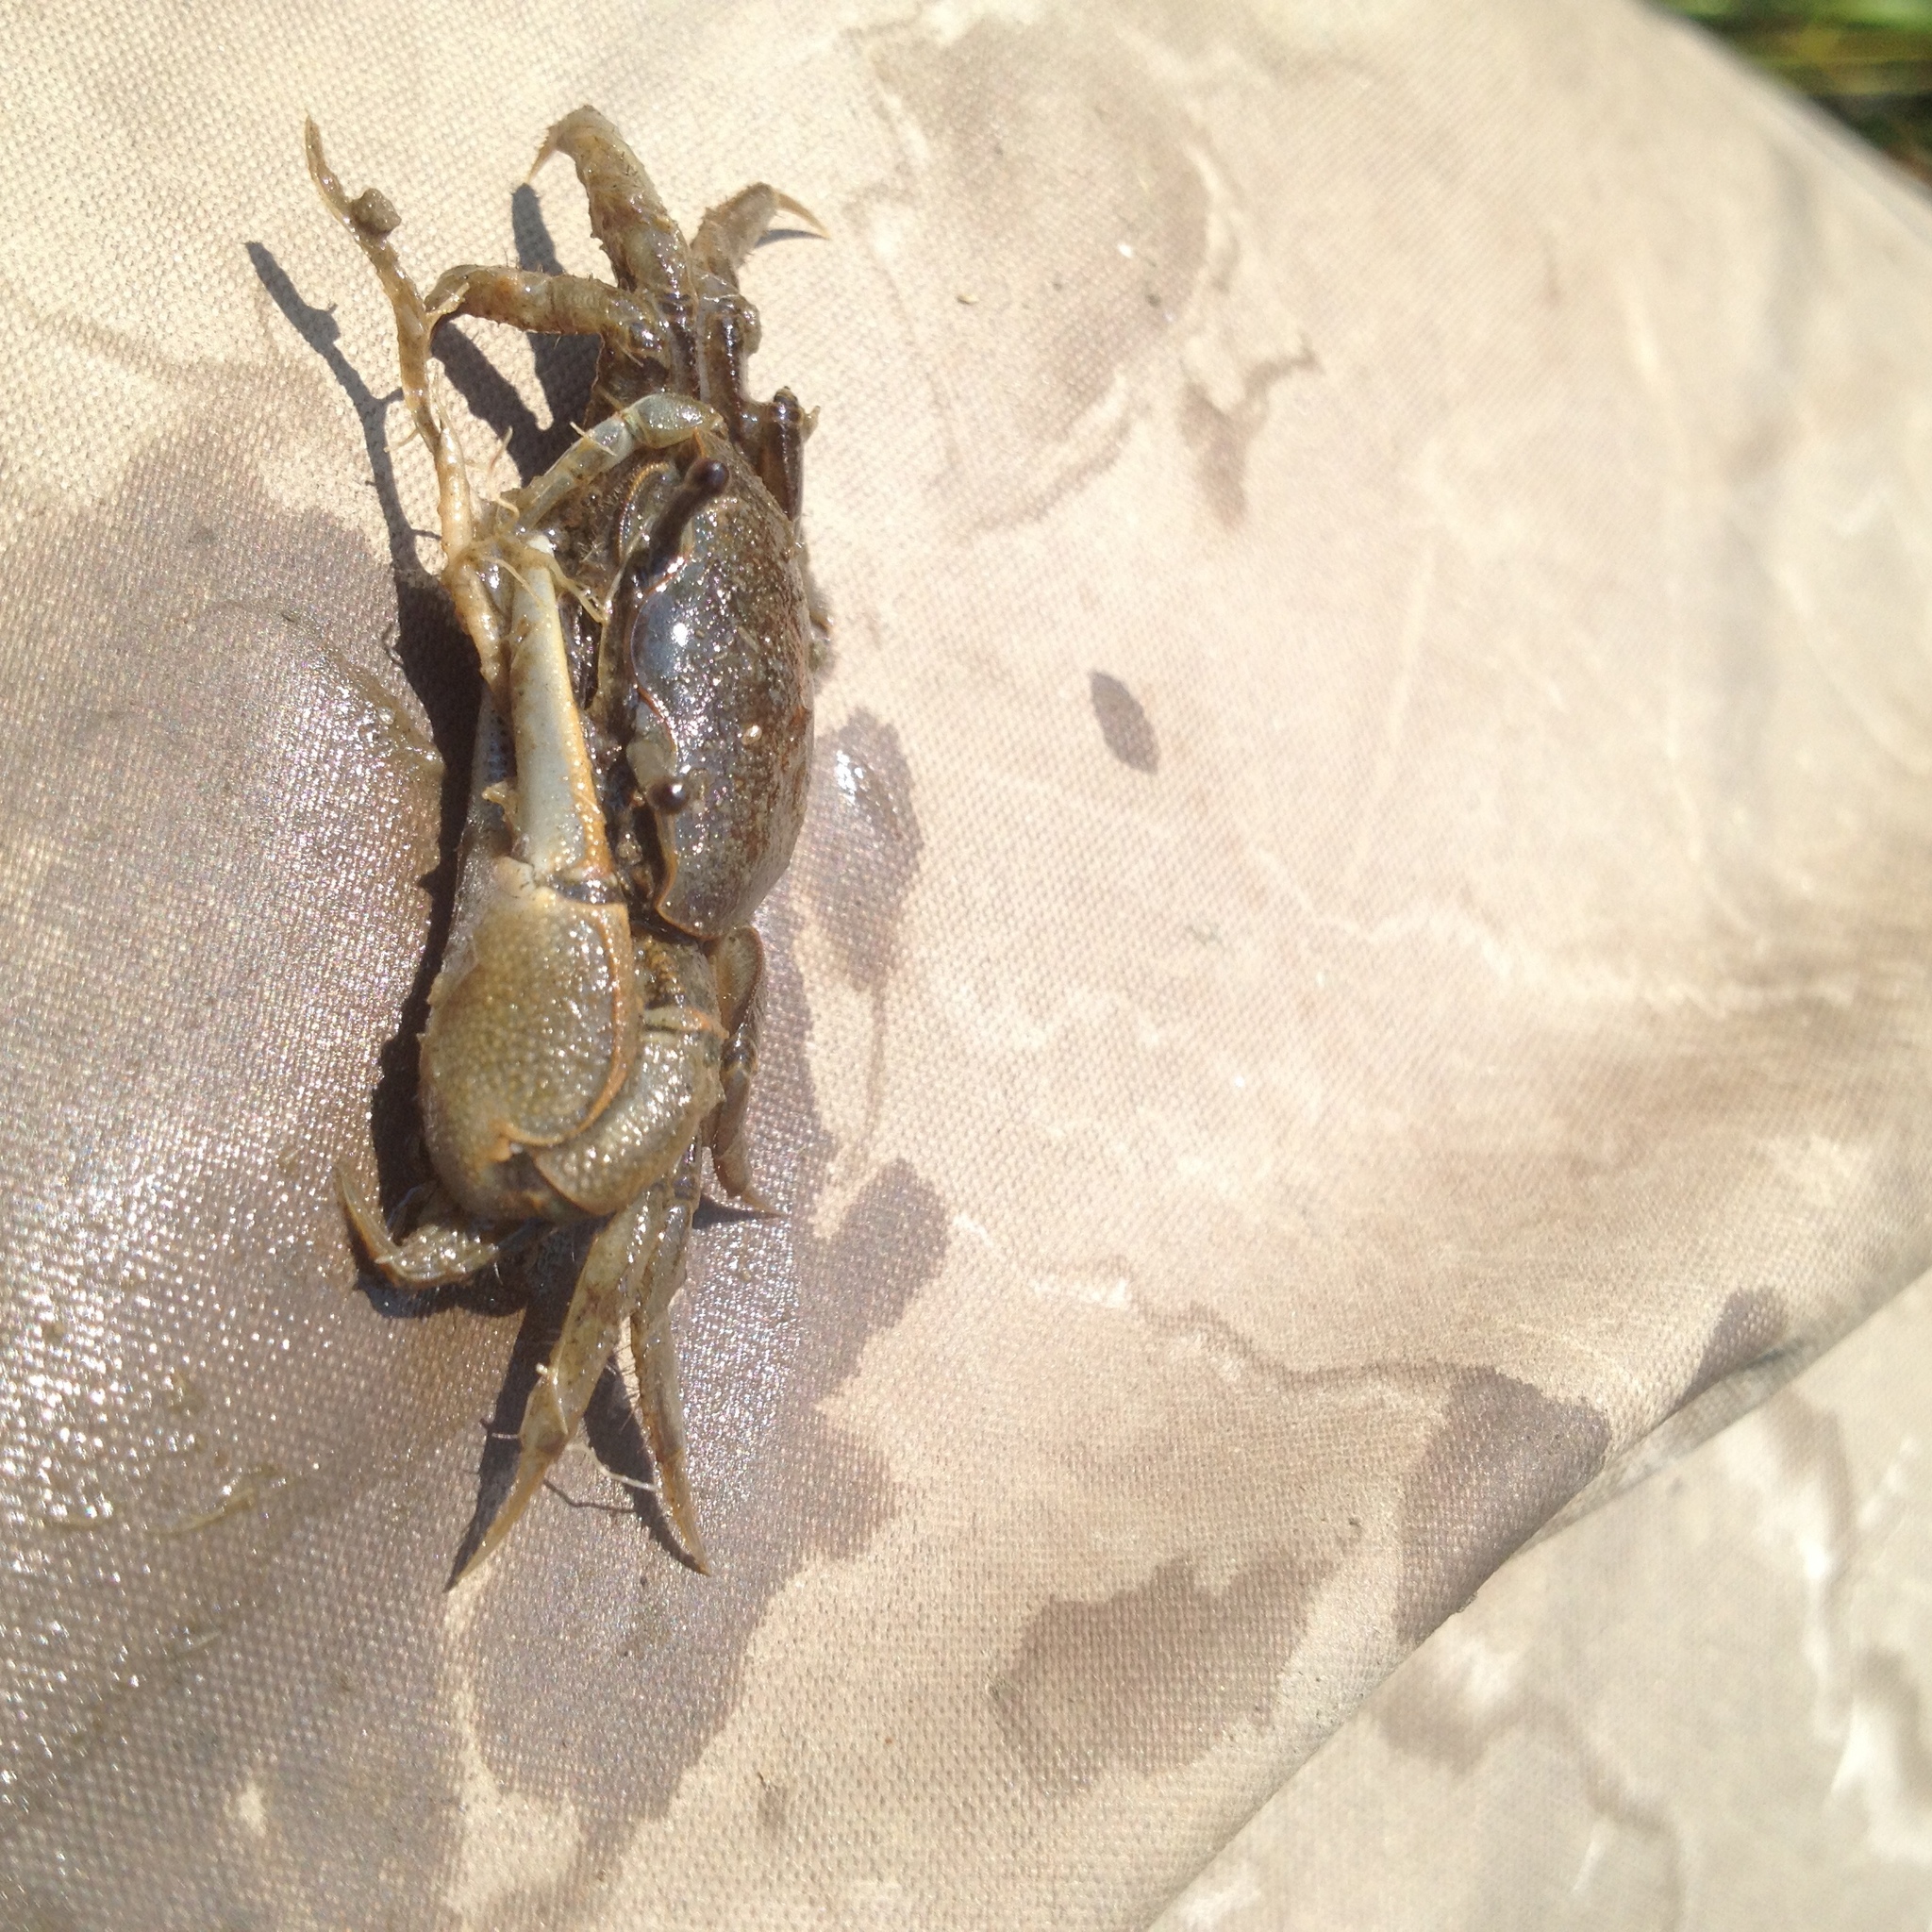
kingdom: Animalia
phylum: Arthropoda
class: Malacostraca
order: Decapoda
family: Ocypodidae
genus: Minuca
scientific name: Minuca pugnax
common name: Mud fiddler crab
